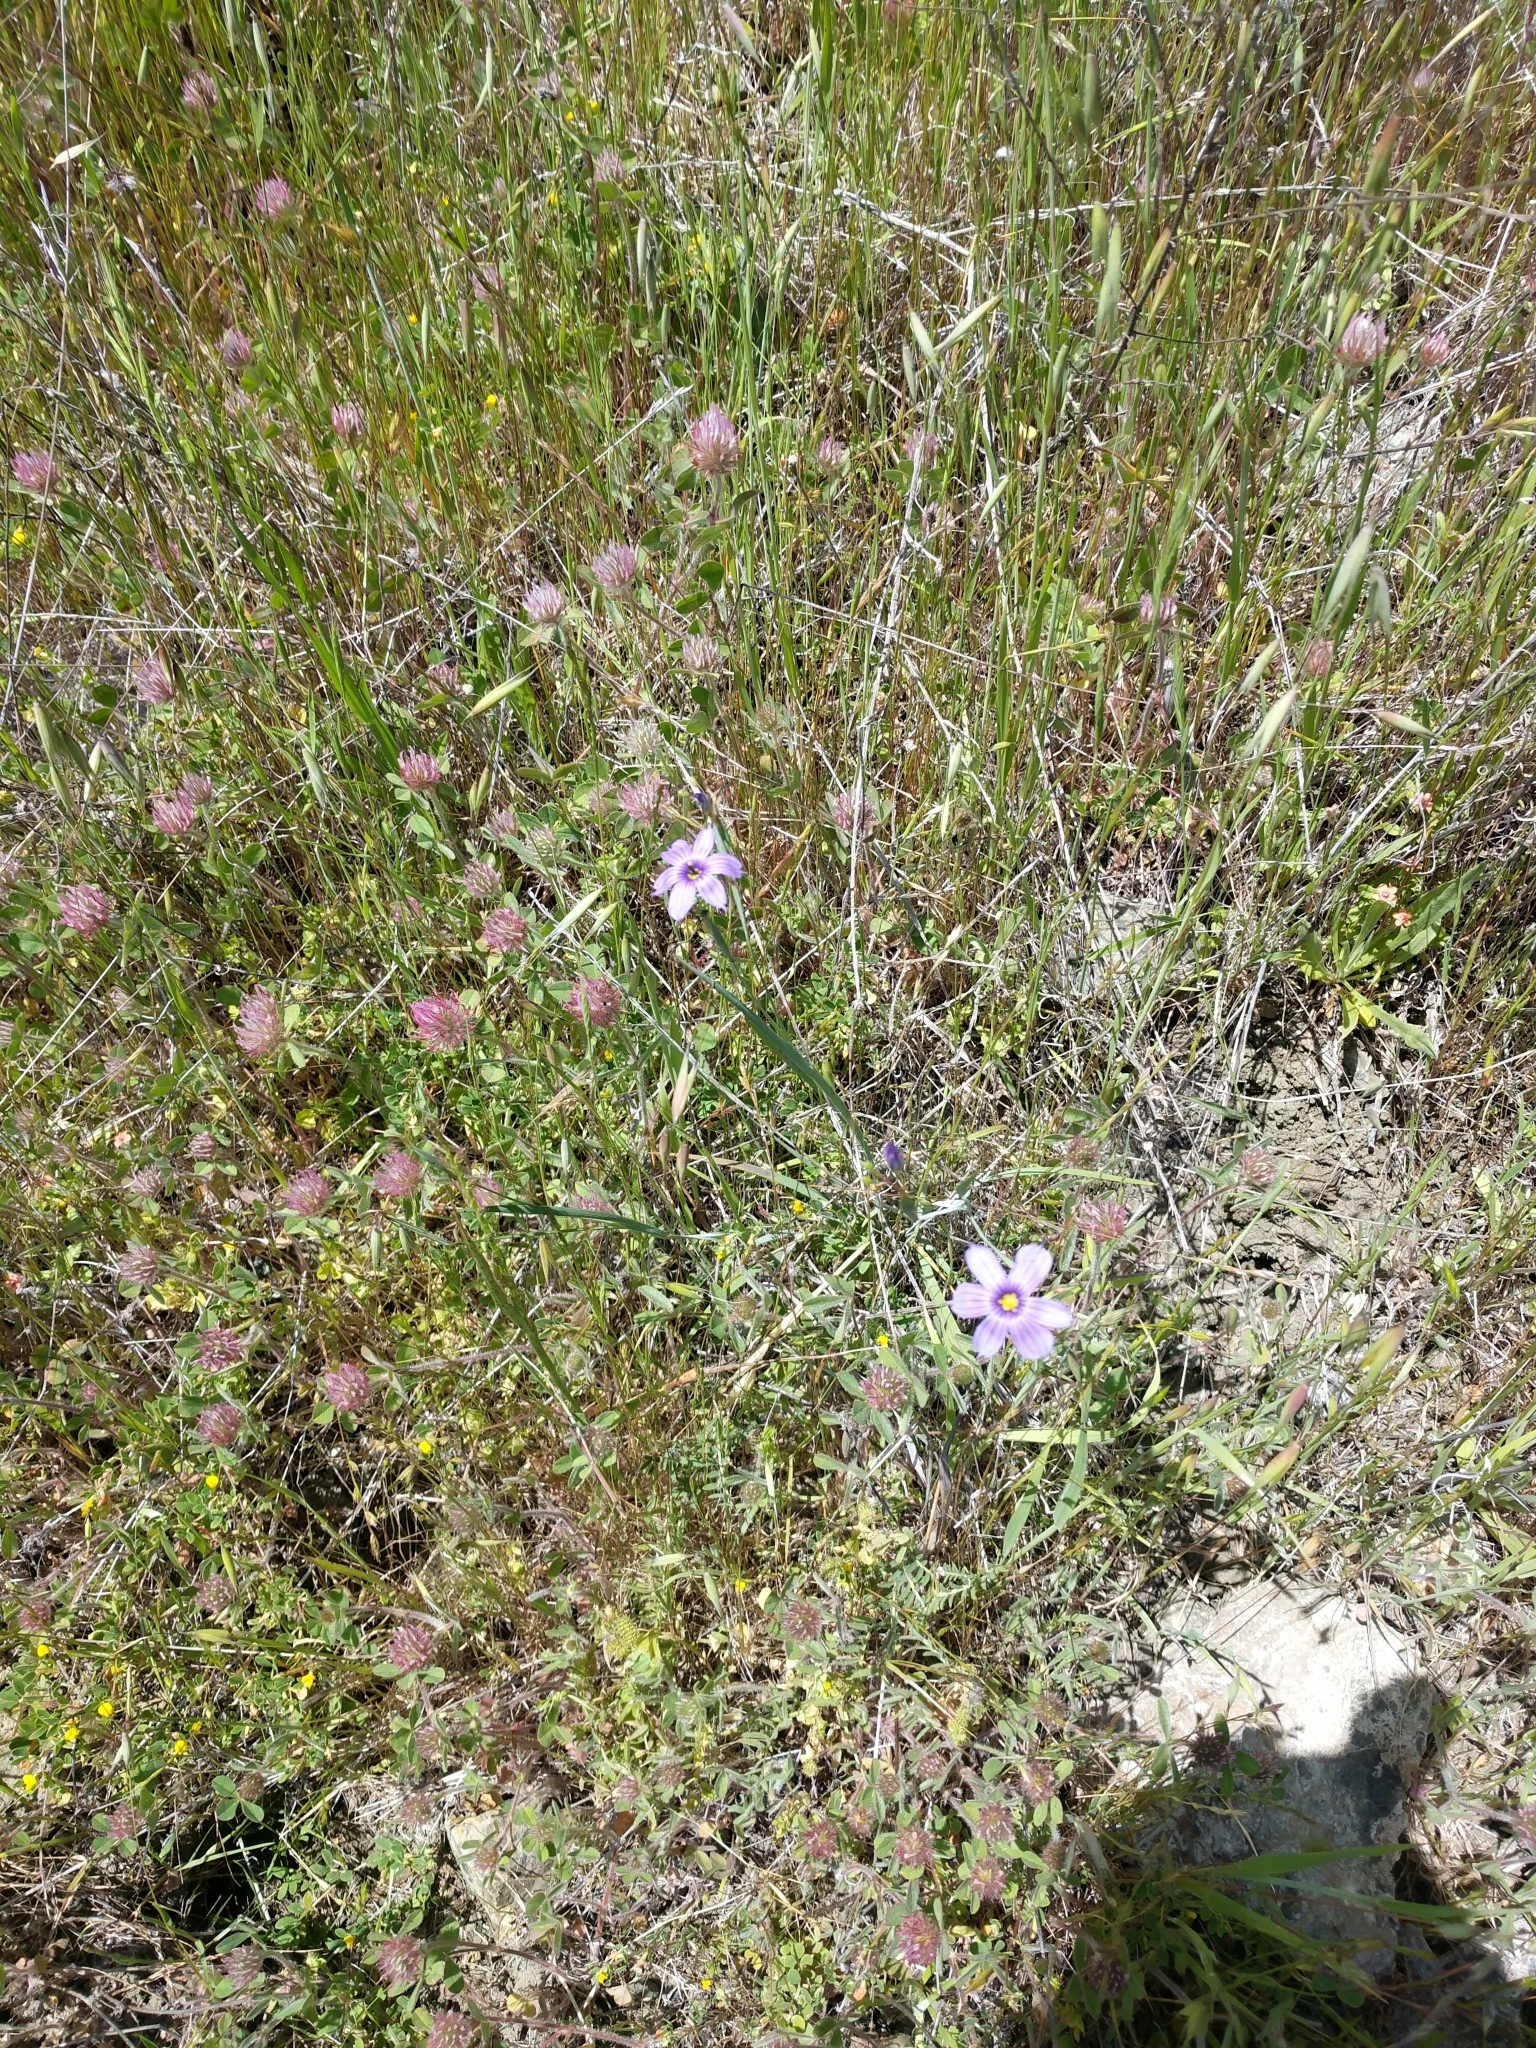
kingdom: Plantae
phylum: Tracheophyta
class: Liliopsida
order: Asparagales
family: Iridaceae
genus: Sisyrinchium
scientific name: Sisyrinchium bellum
